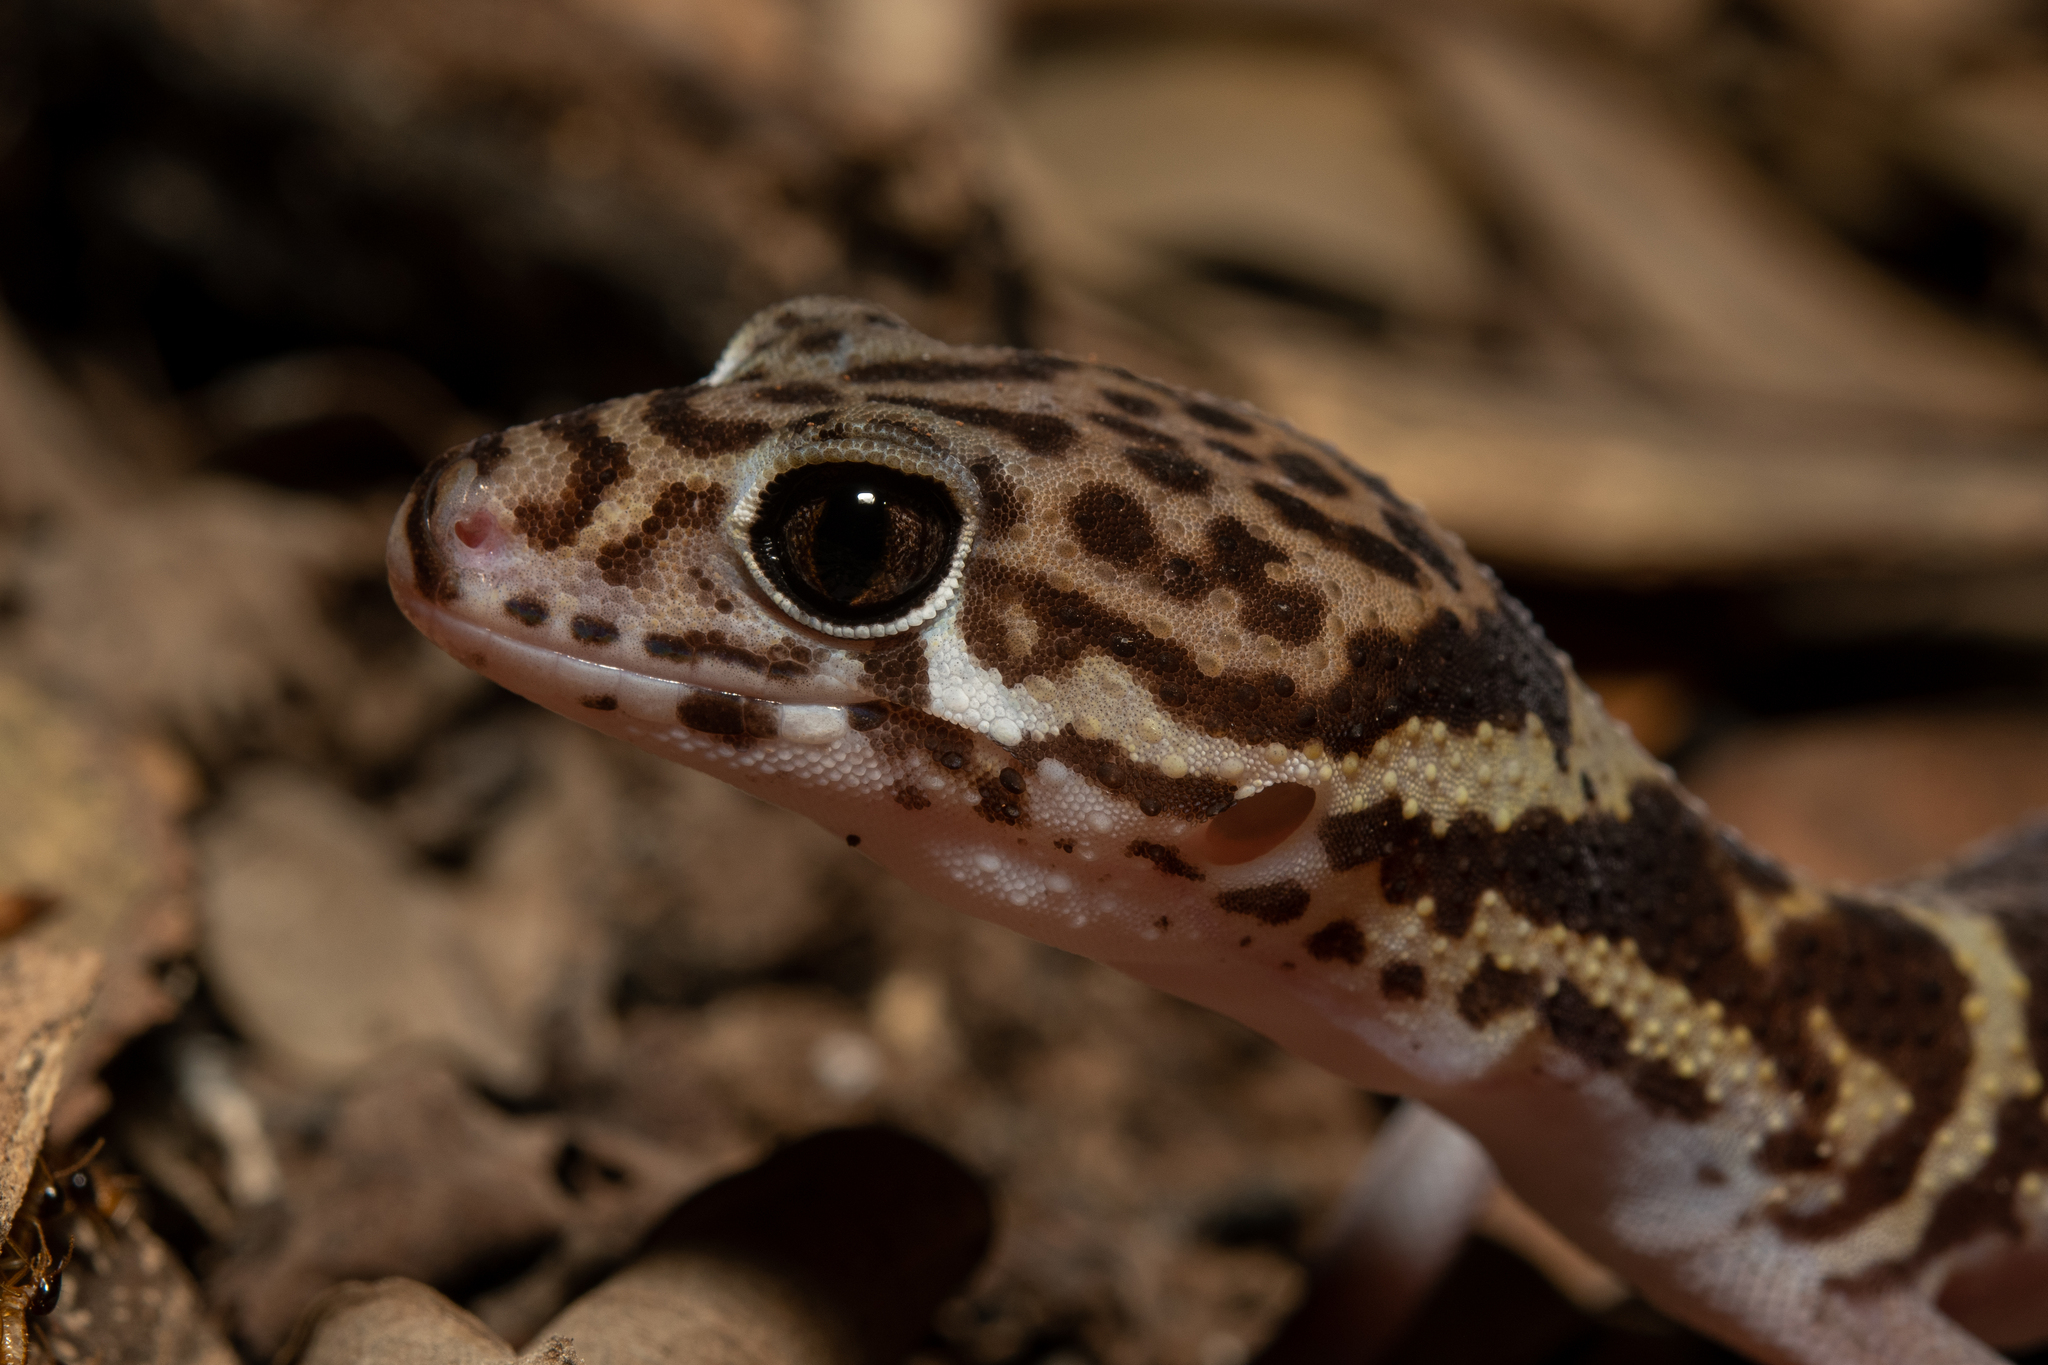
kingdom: Animalia
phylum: Chordata
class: Squamata
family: Eublepharidae
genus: Coleonyx
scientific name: Coleonyx mitratus
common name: Central american banded gecko
